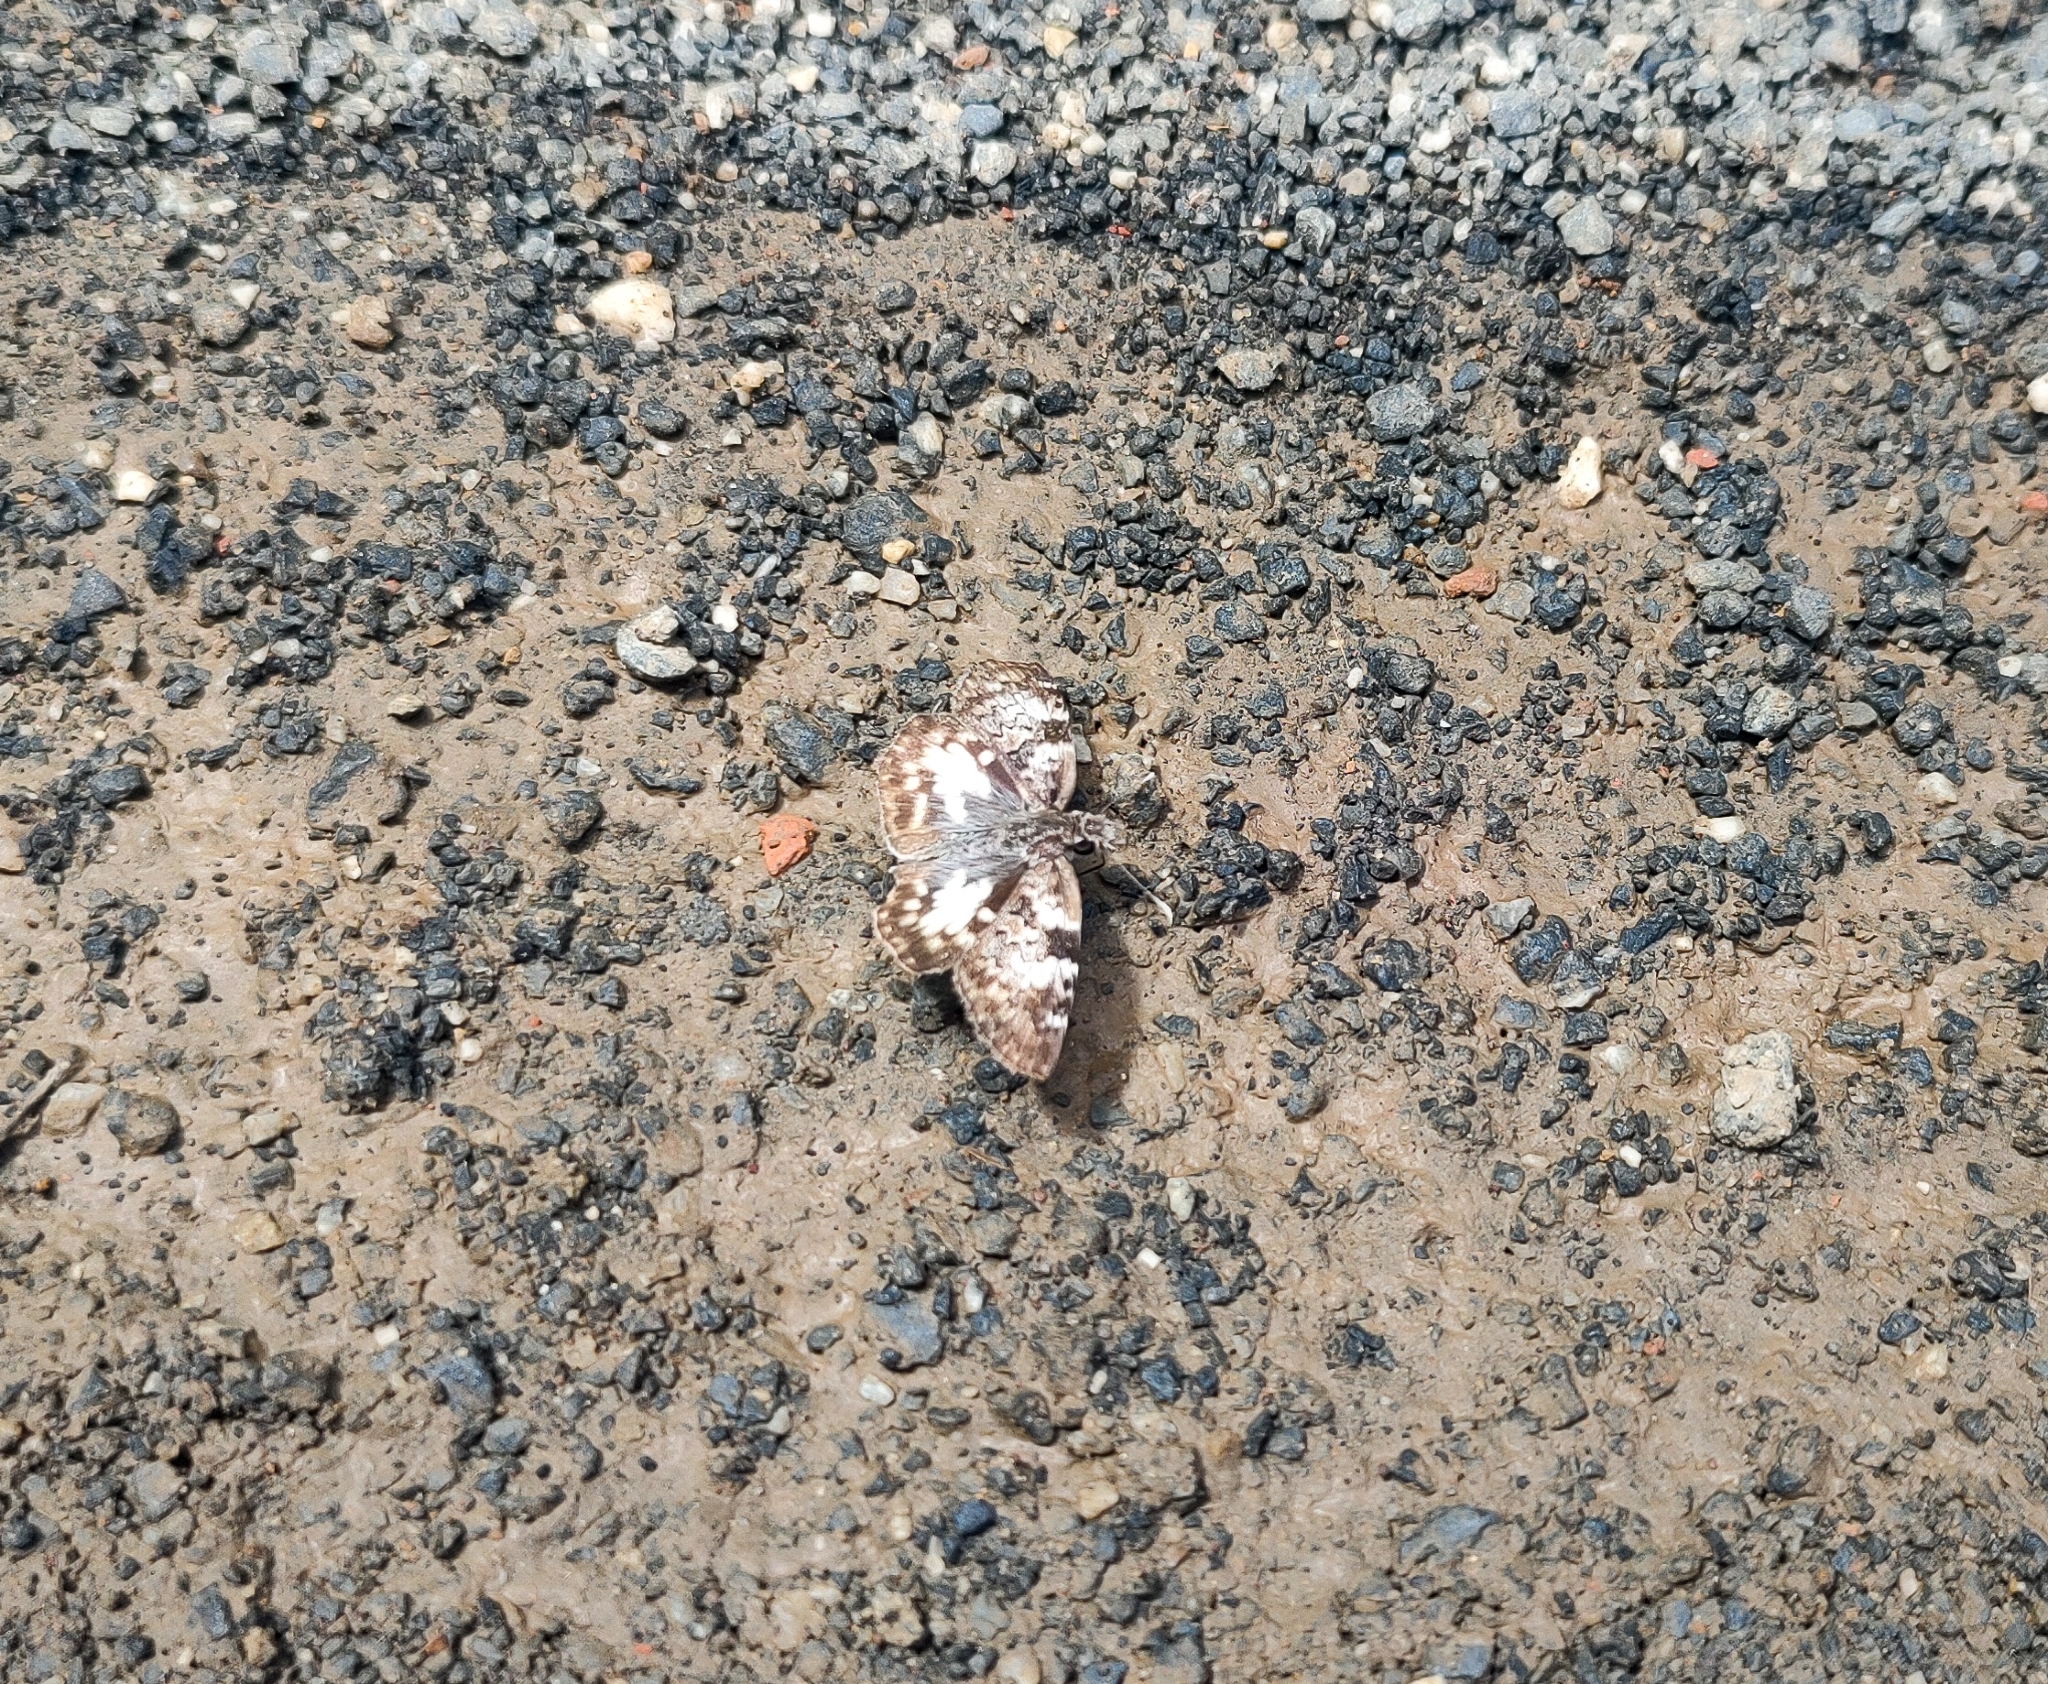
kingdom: Animalia
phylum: Arthropoda
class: Insecta
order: Lepidoptera
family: Hesperiidae
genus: Chiomara
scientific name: Chiomara asychis
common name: White-patterned skipper
